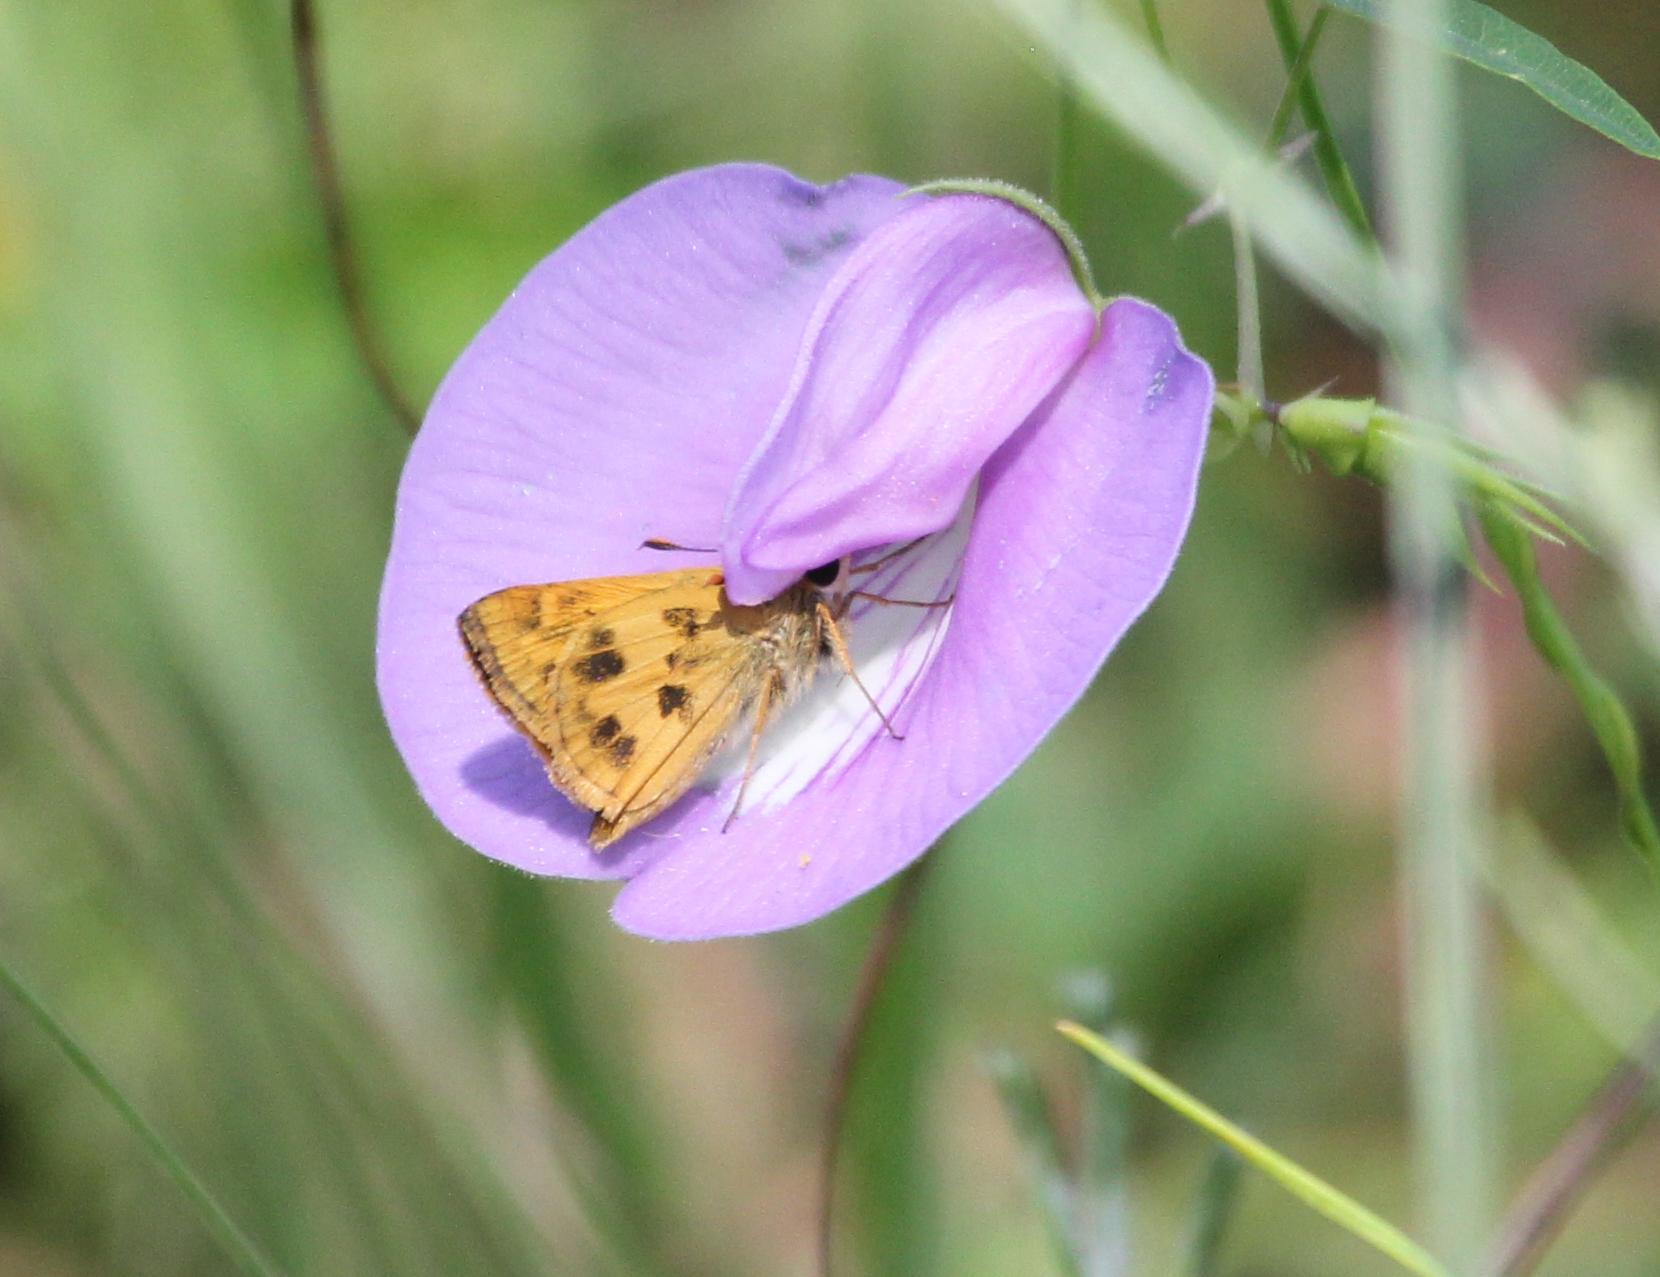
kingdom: Animalia
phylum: Arthropoda
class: Insecta
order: Lepidoptera
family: Hesperiidae
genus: Polites
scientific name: Polites vibex
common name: Whirlabout
